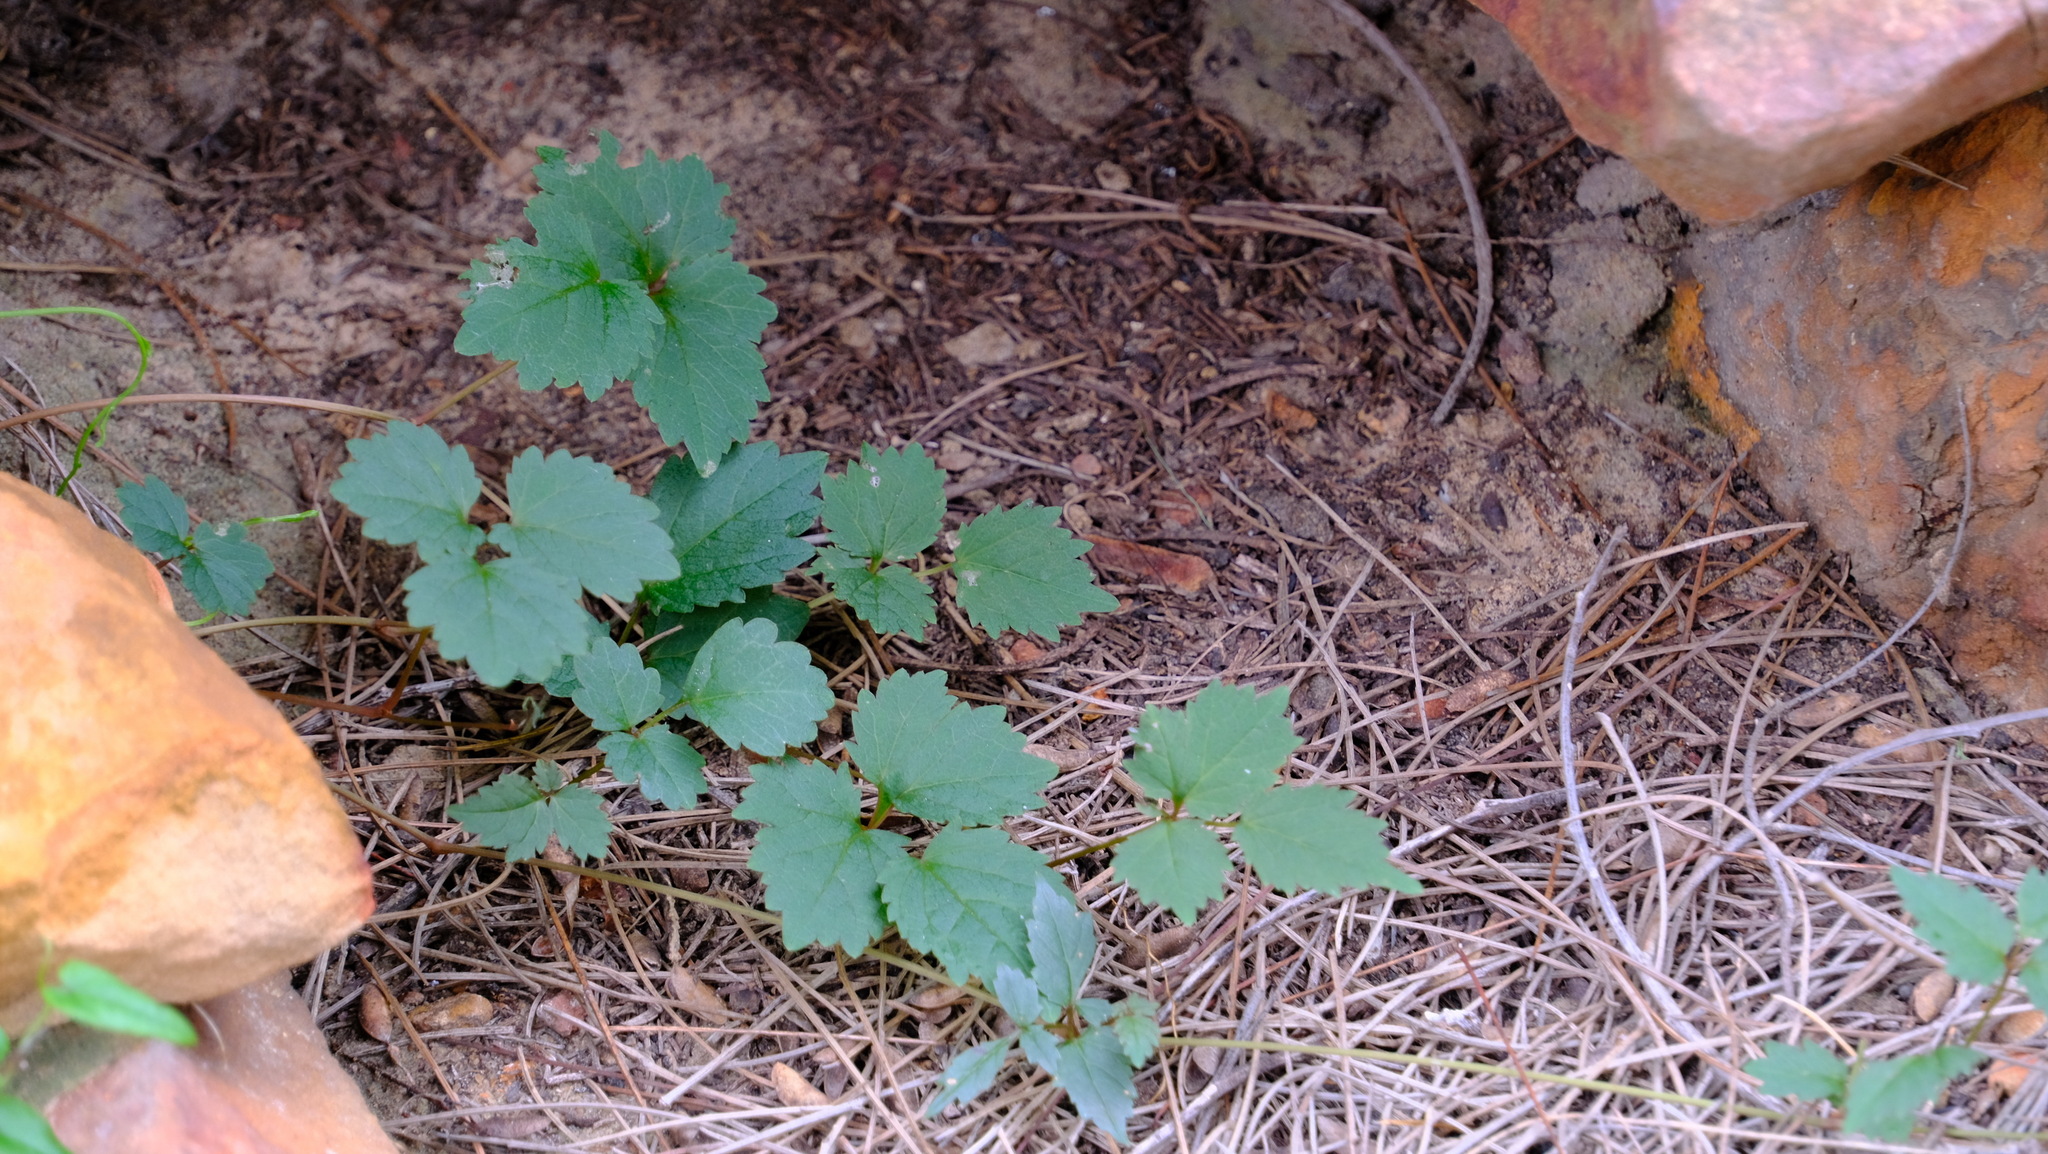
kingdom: Plantae
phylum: Tracheophyta
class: Magnoliopsida
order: Vitales
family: Vitaceae
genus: Clematicissus
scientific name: Clematicissus angustissima
